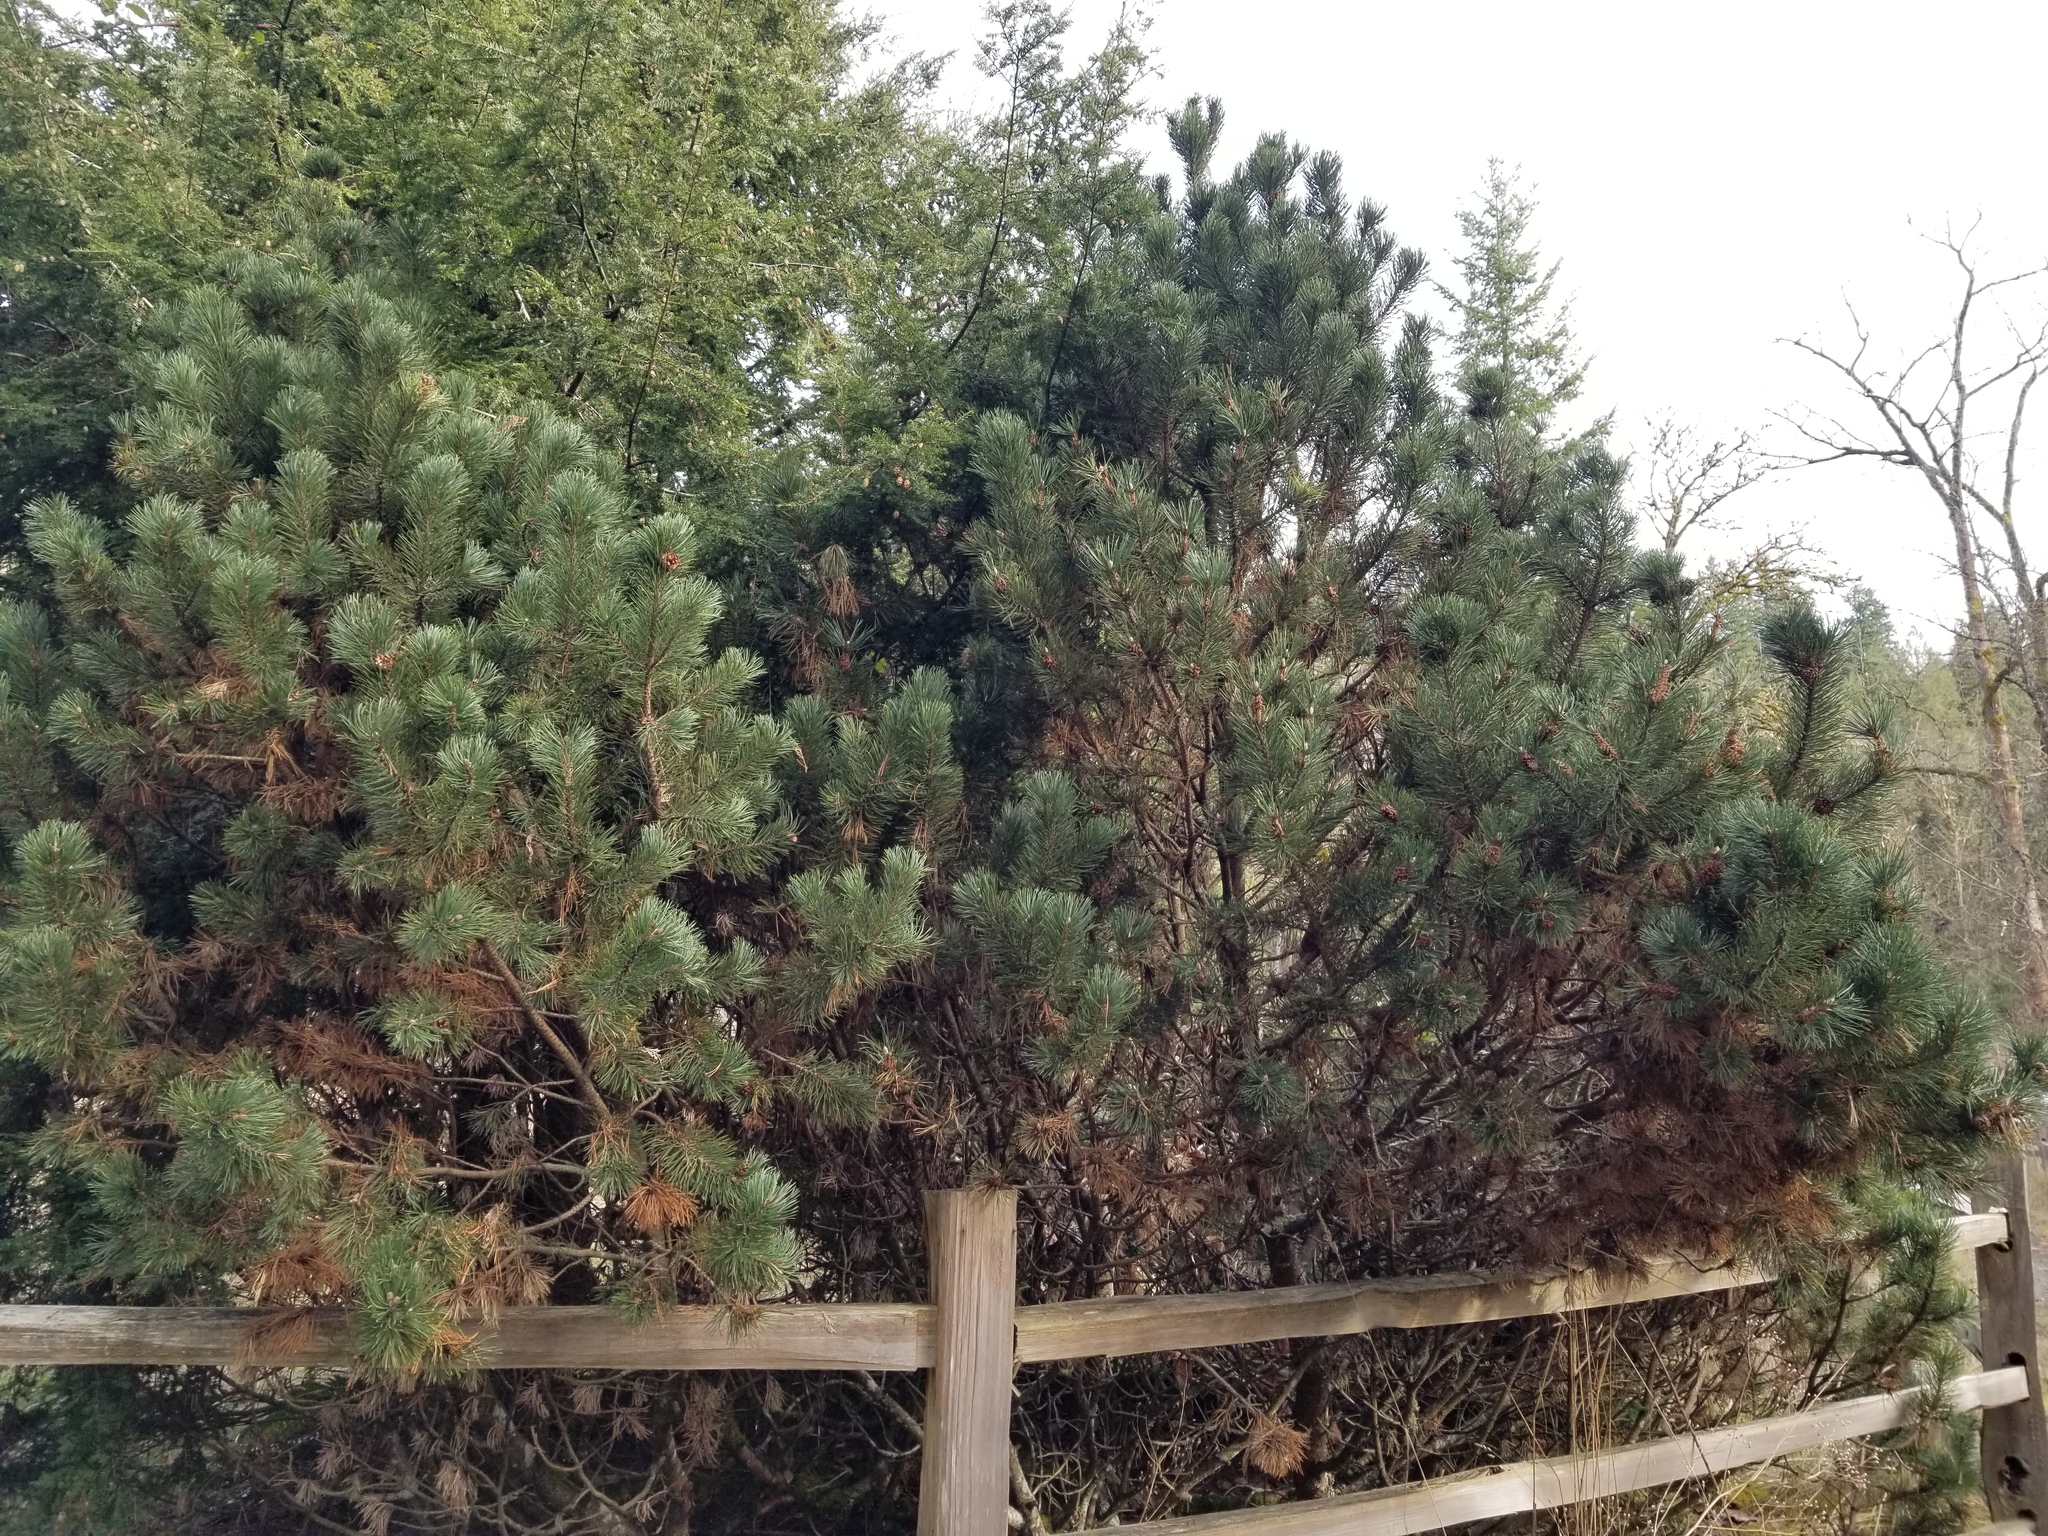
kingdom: Plantae
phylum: Tracheophyta
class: Pinopsida
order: Pinales
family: Pinaceae
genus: Pinus
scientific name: Pinus contorta
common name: Lodgepole pine
